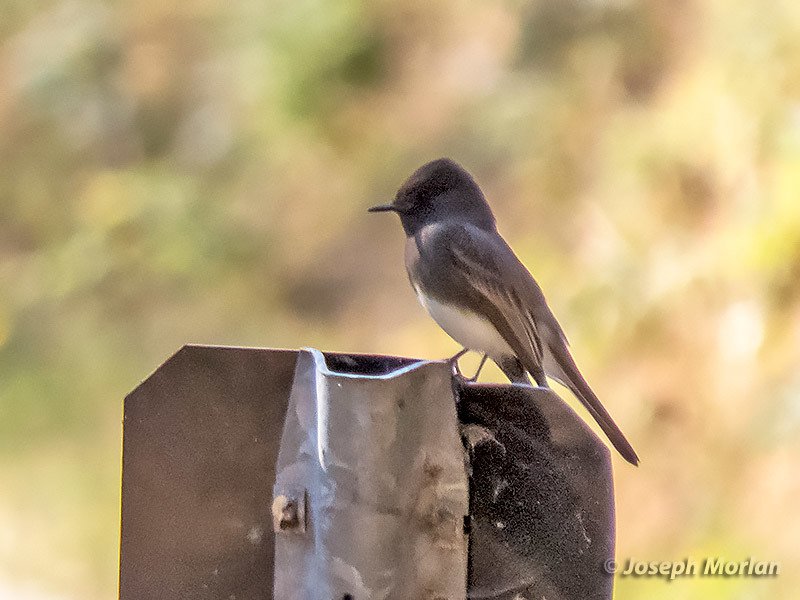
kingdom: Animalia
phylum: Chordata
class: Aves
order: Passeriformes
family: Tyrannidae
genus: Sayornis
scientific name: Sayornis nigricans
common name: Black phoebe
